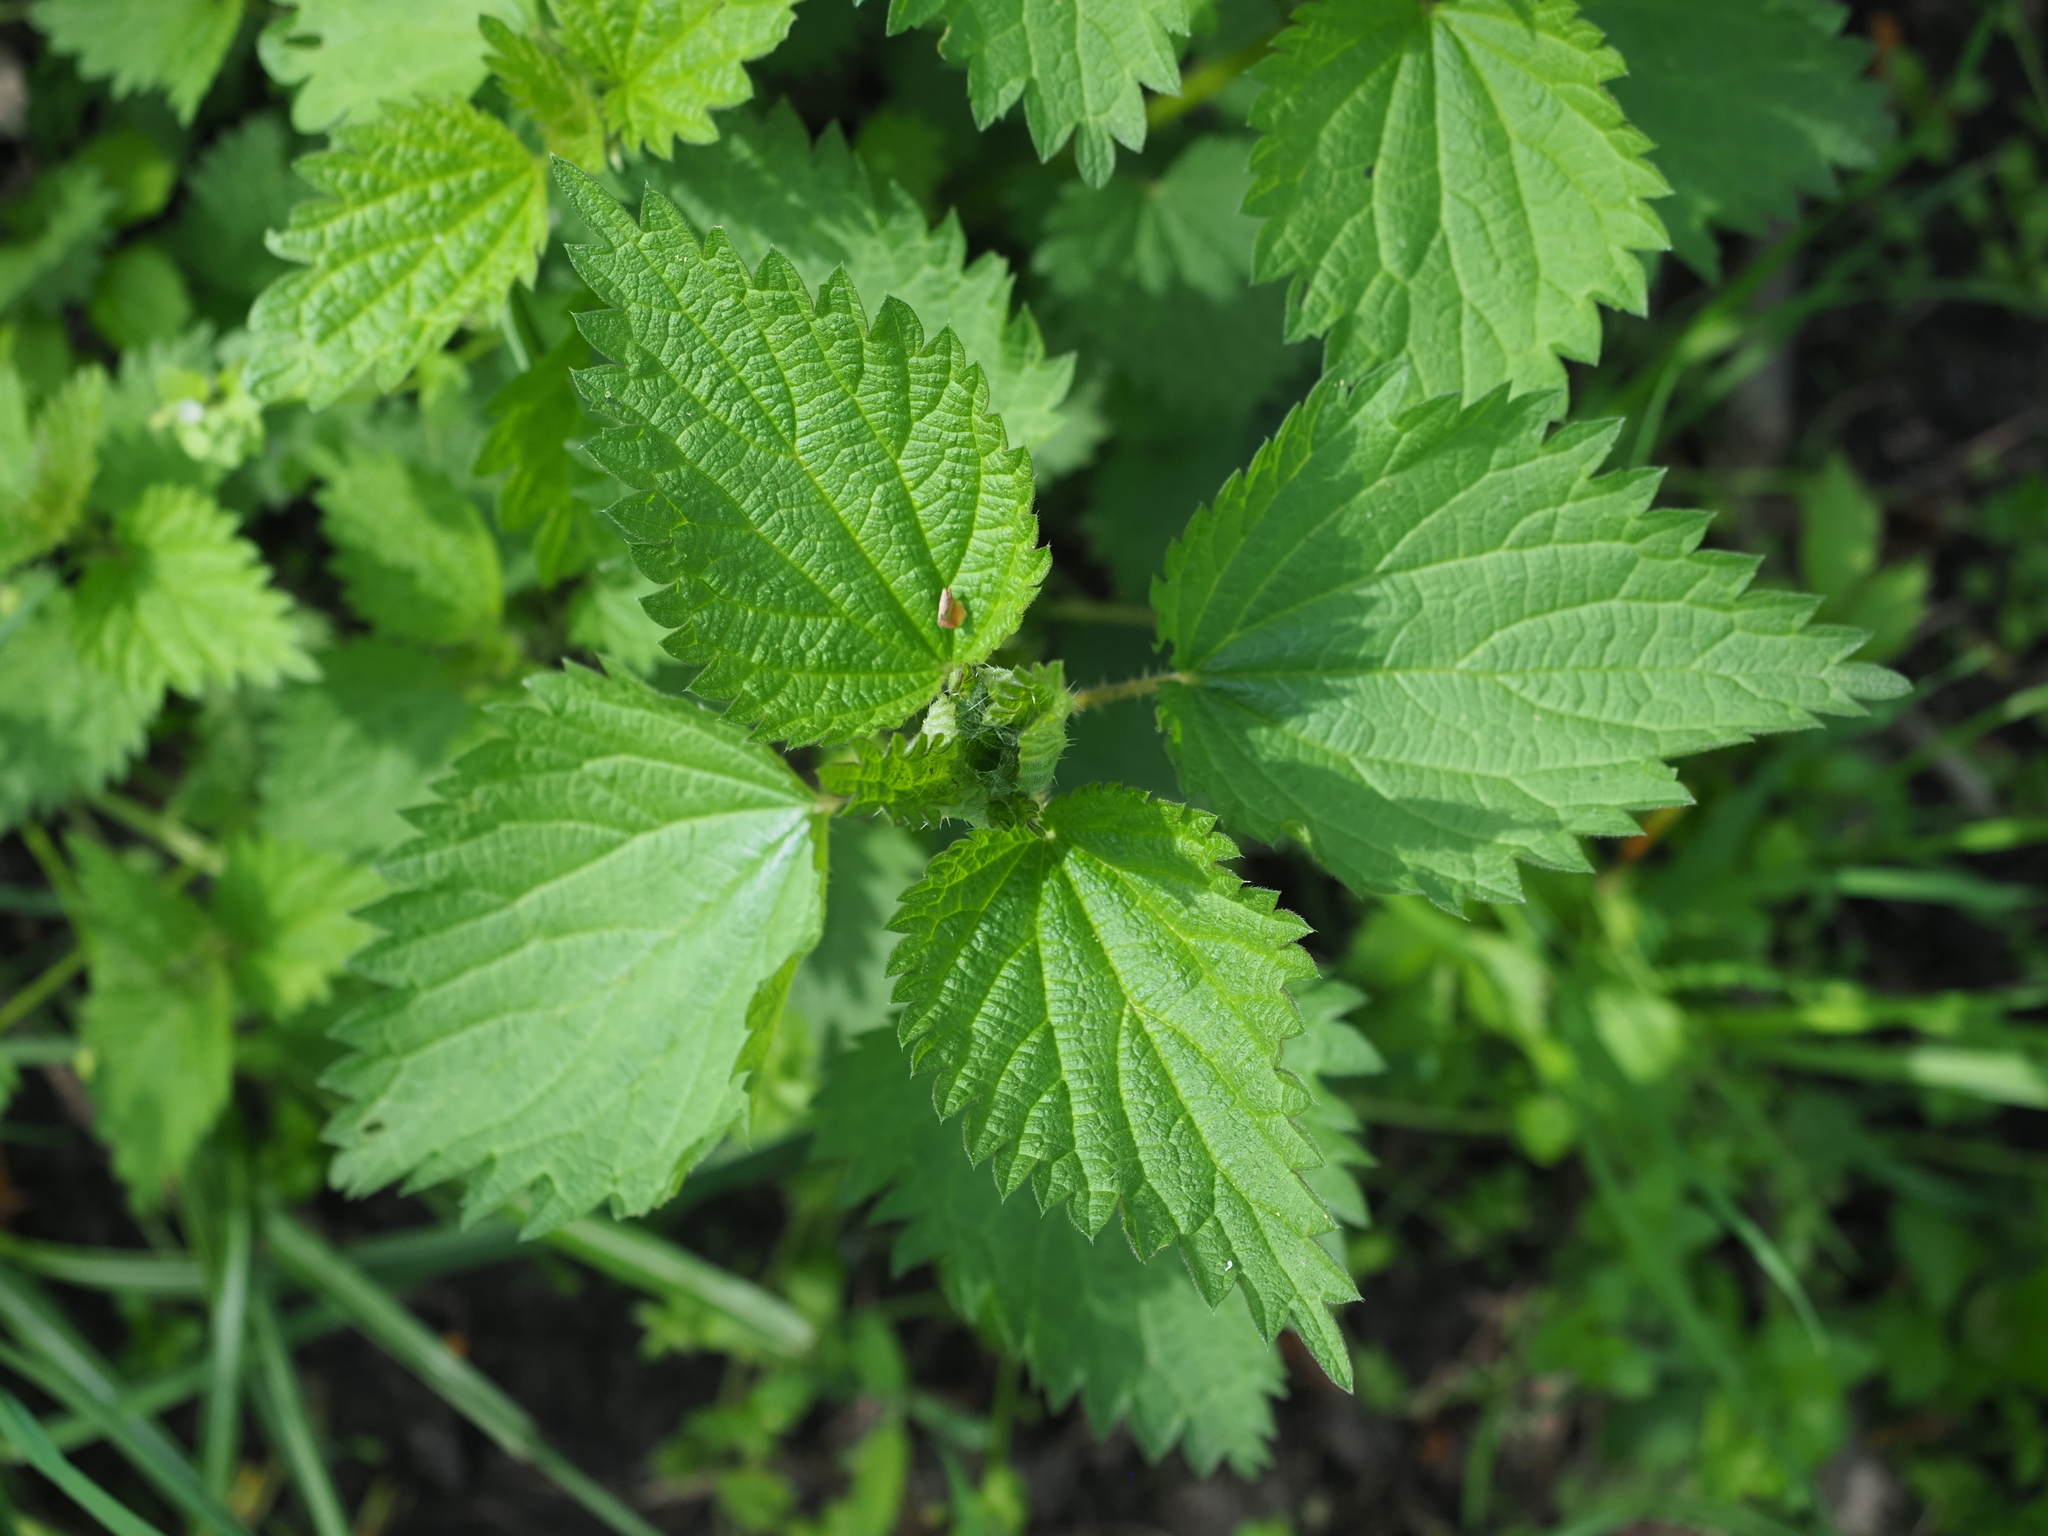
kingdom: Plantae
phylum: Tracheophyta
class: Magnoliopsida
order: Rosales
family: Urticaceae
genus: Urtica
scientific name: Urtica dioica
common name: Common nettle
